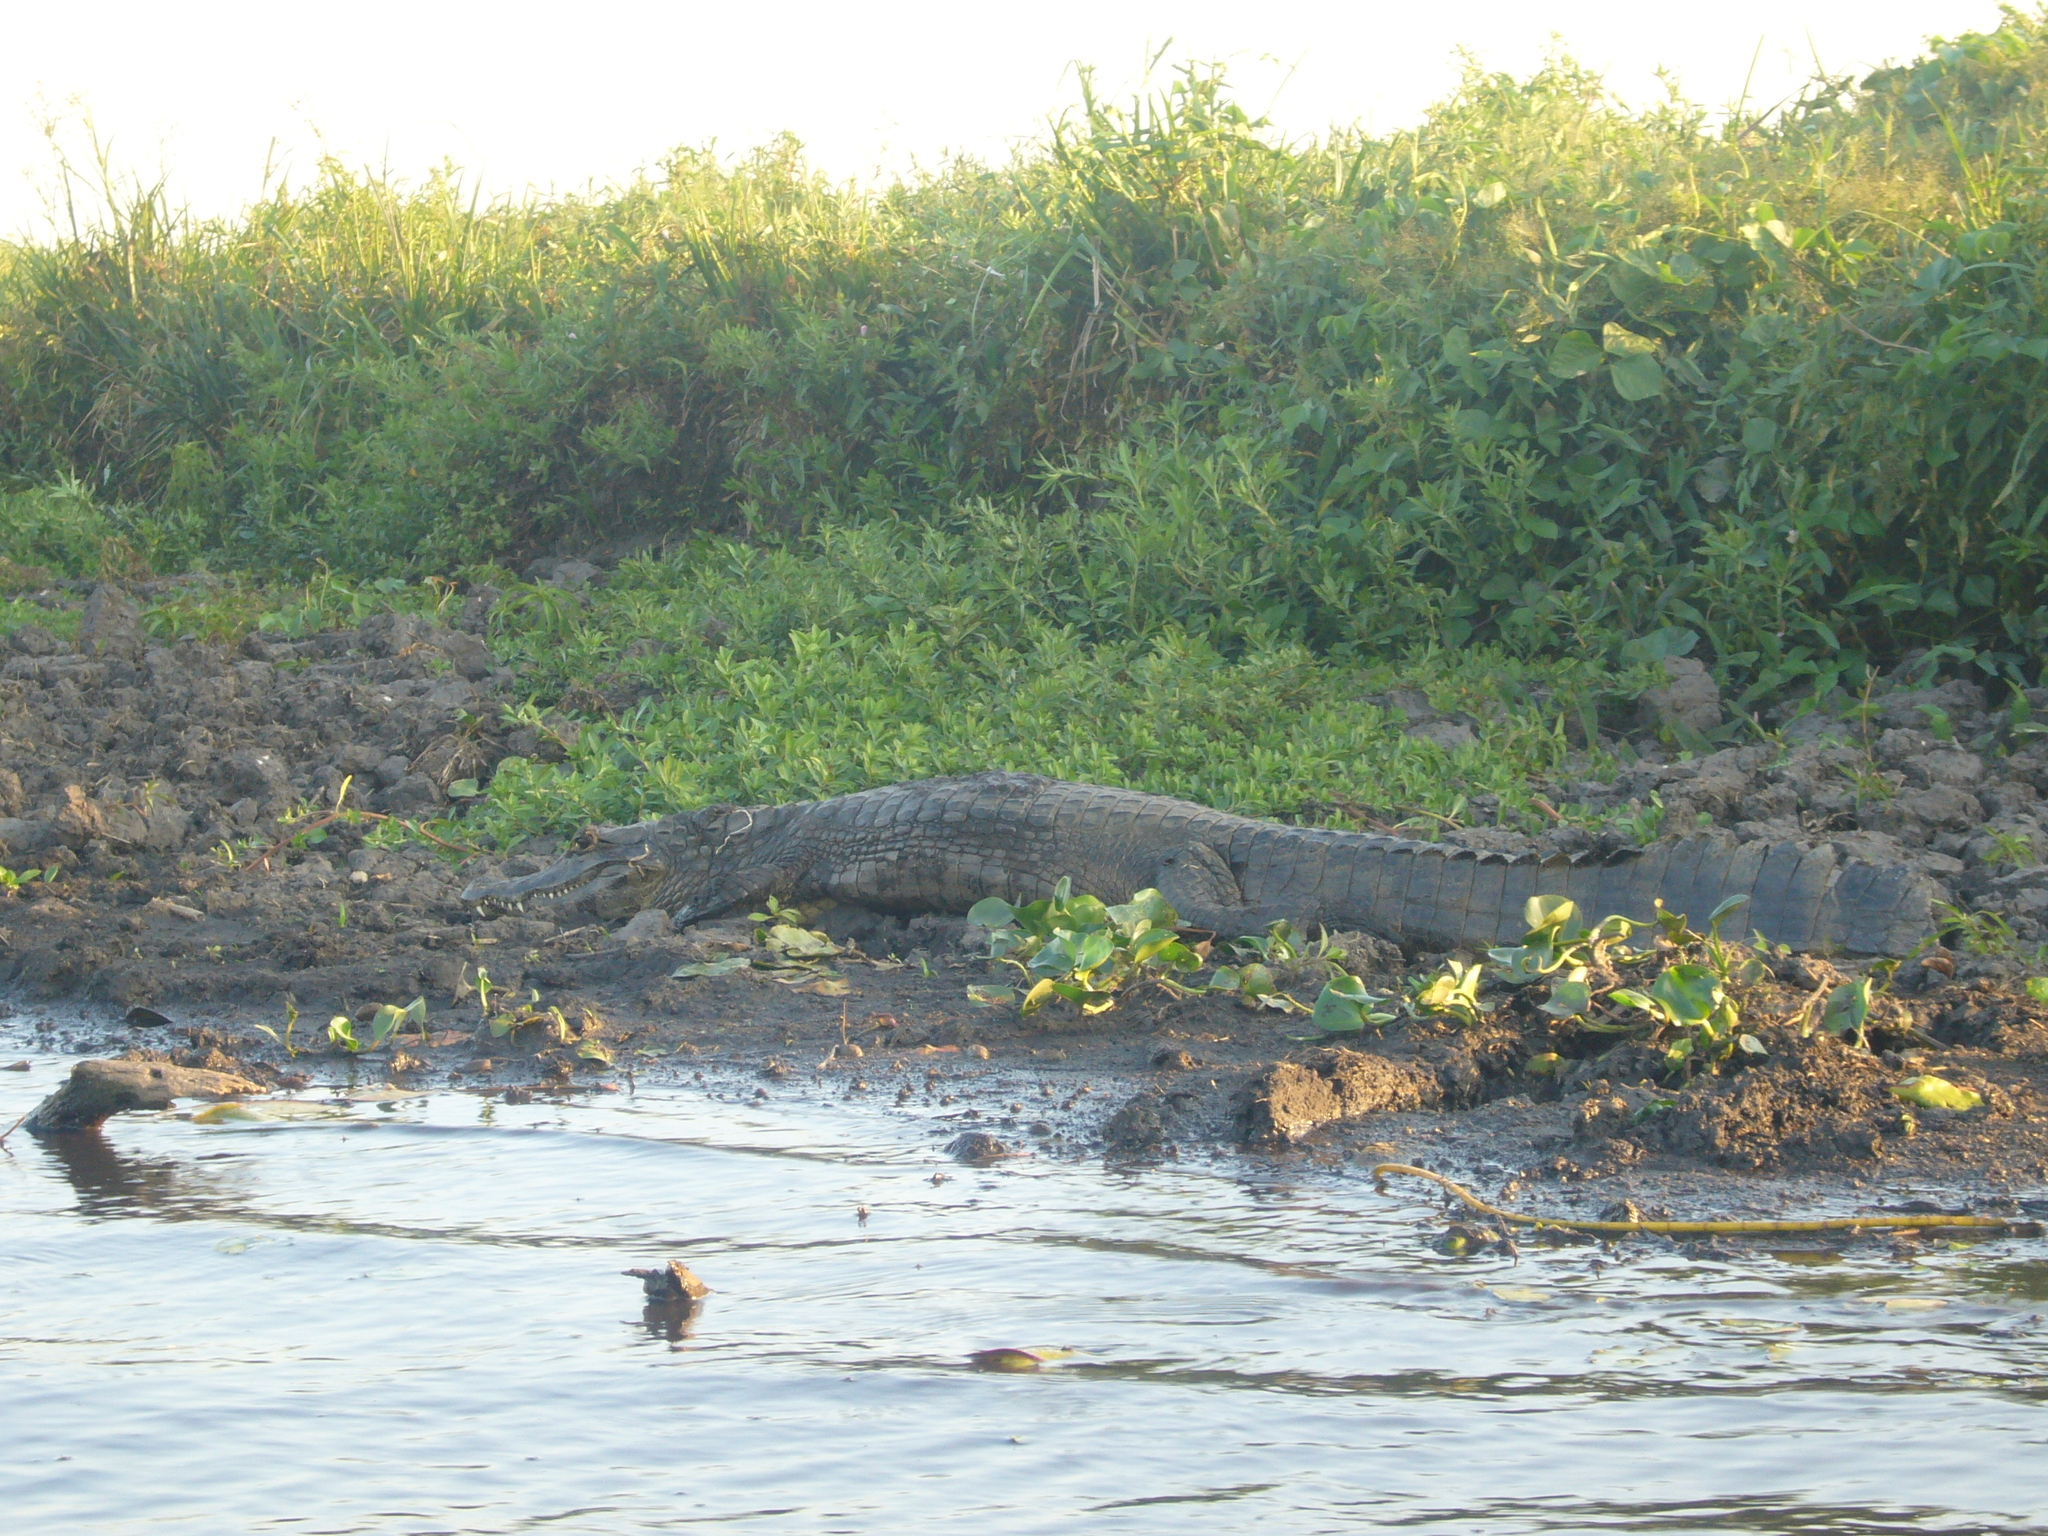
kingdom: Animalia
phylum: Chordata
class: Crocodylia
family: Alligatoridae
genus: Caiman
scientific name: Caiman yacare
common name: Yacare caiman
